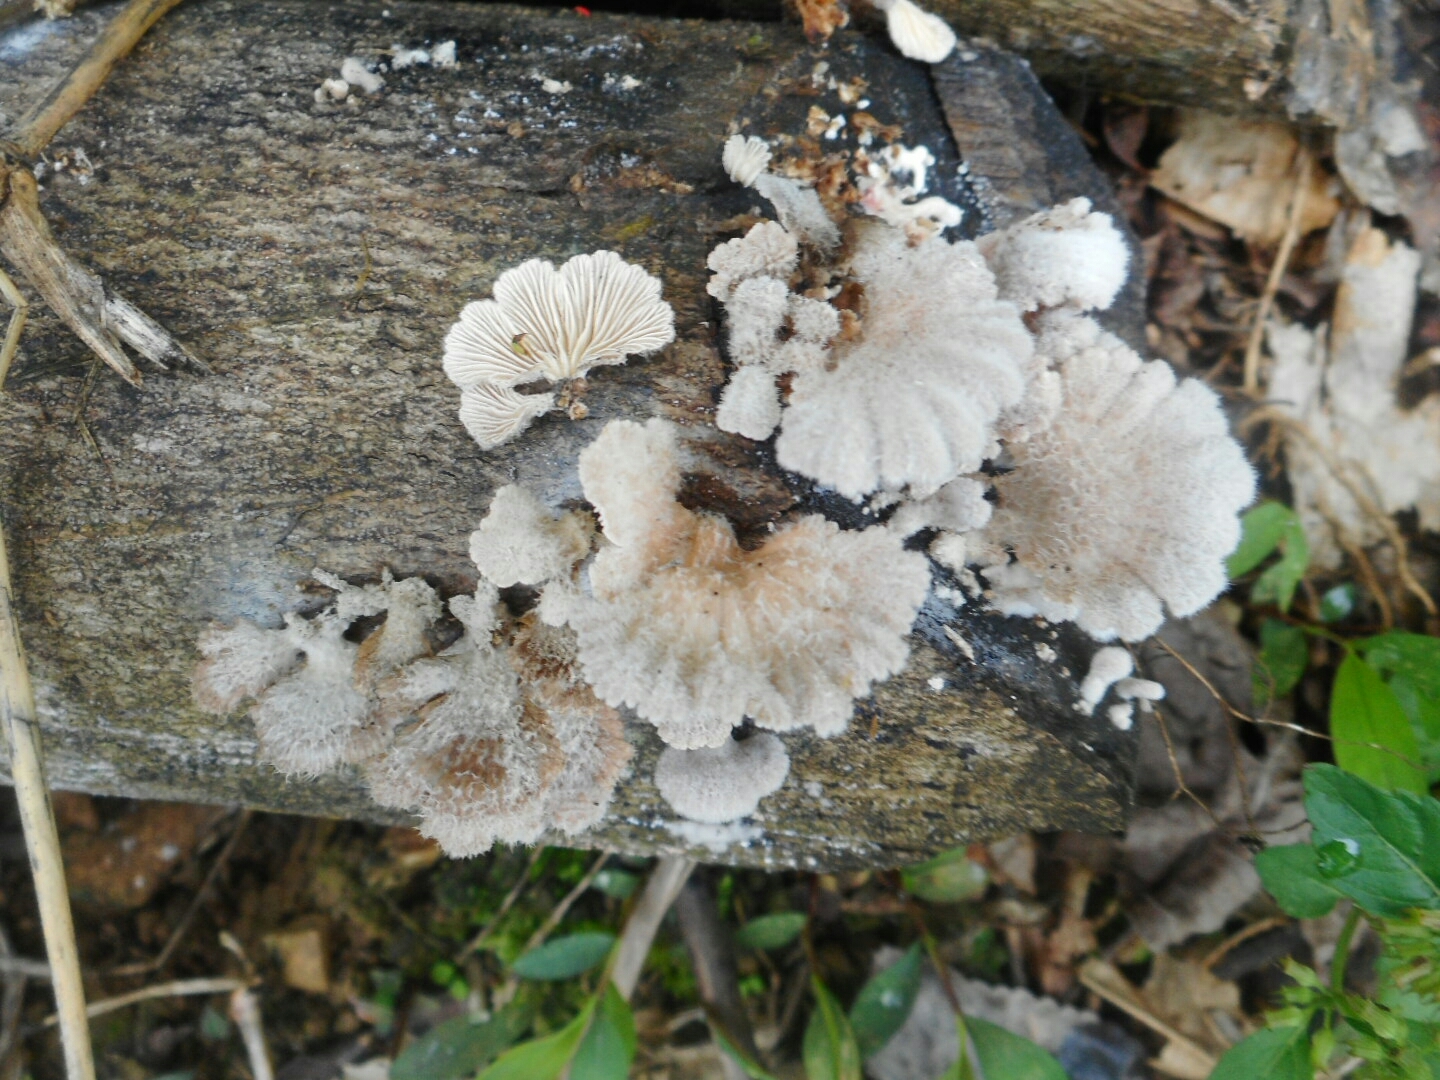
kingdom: Fungi
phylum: Basidiomycota
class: Agaricomycetes
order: Agaricales
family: Schizophyllaceae
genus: Schizophyllum
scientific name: Schizophyllum commune
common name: Common porecrust
